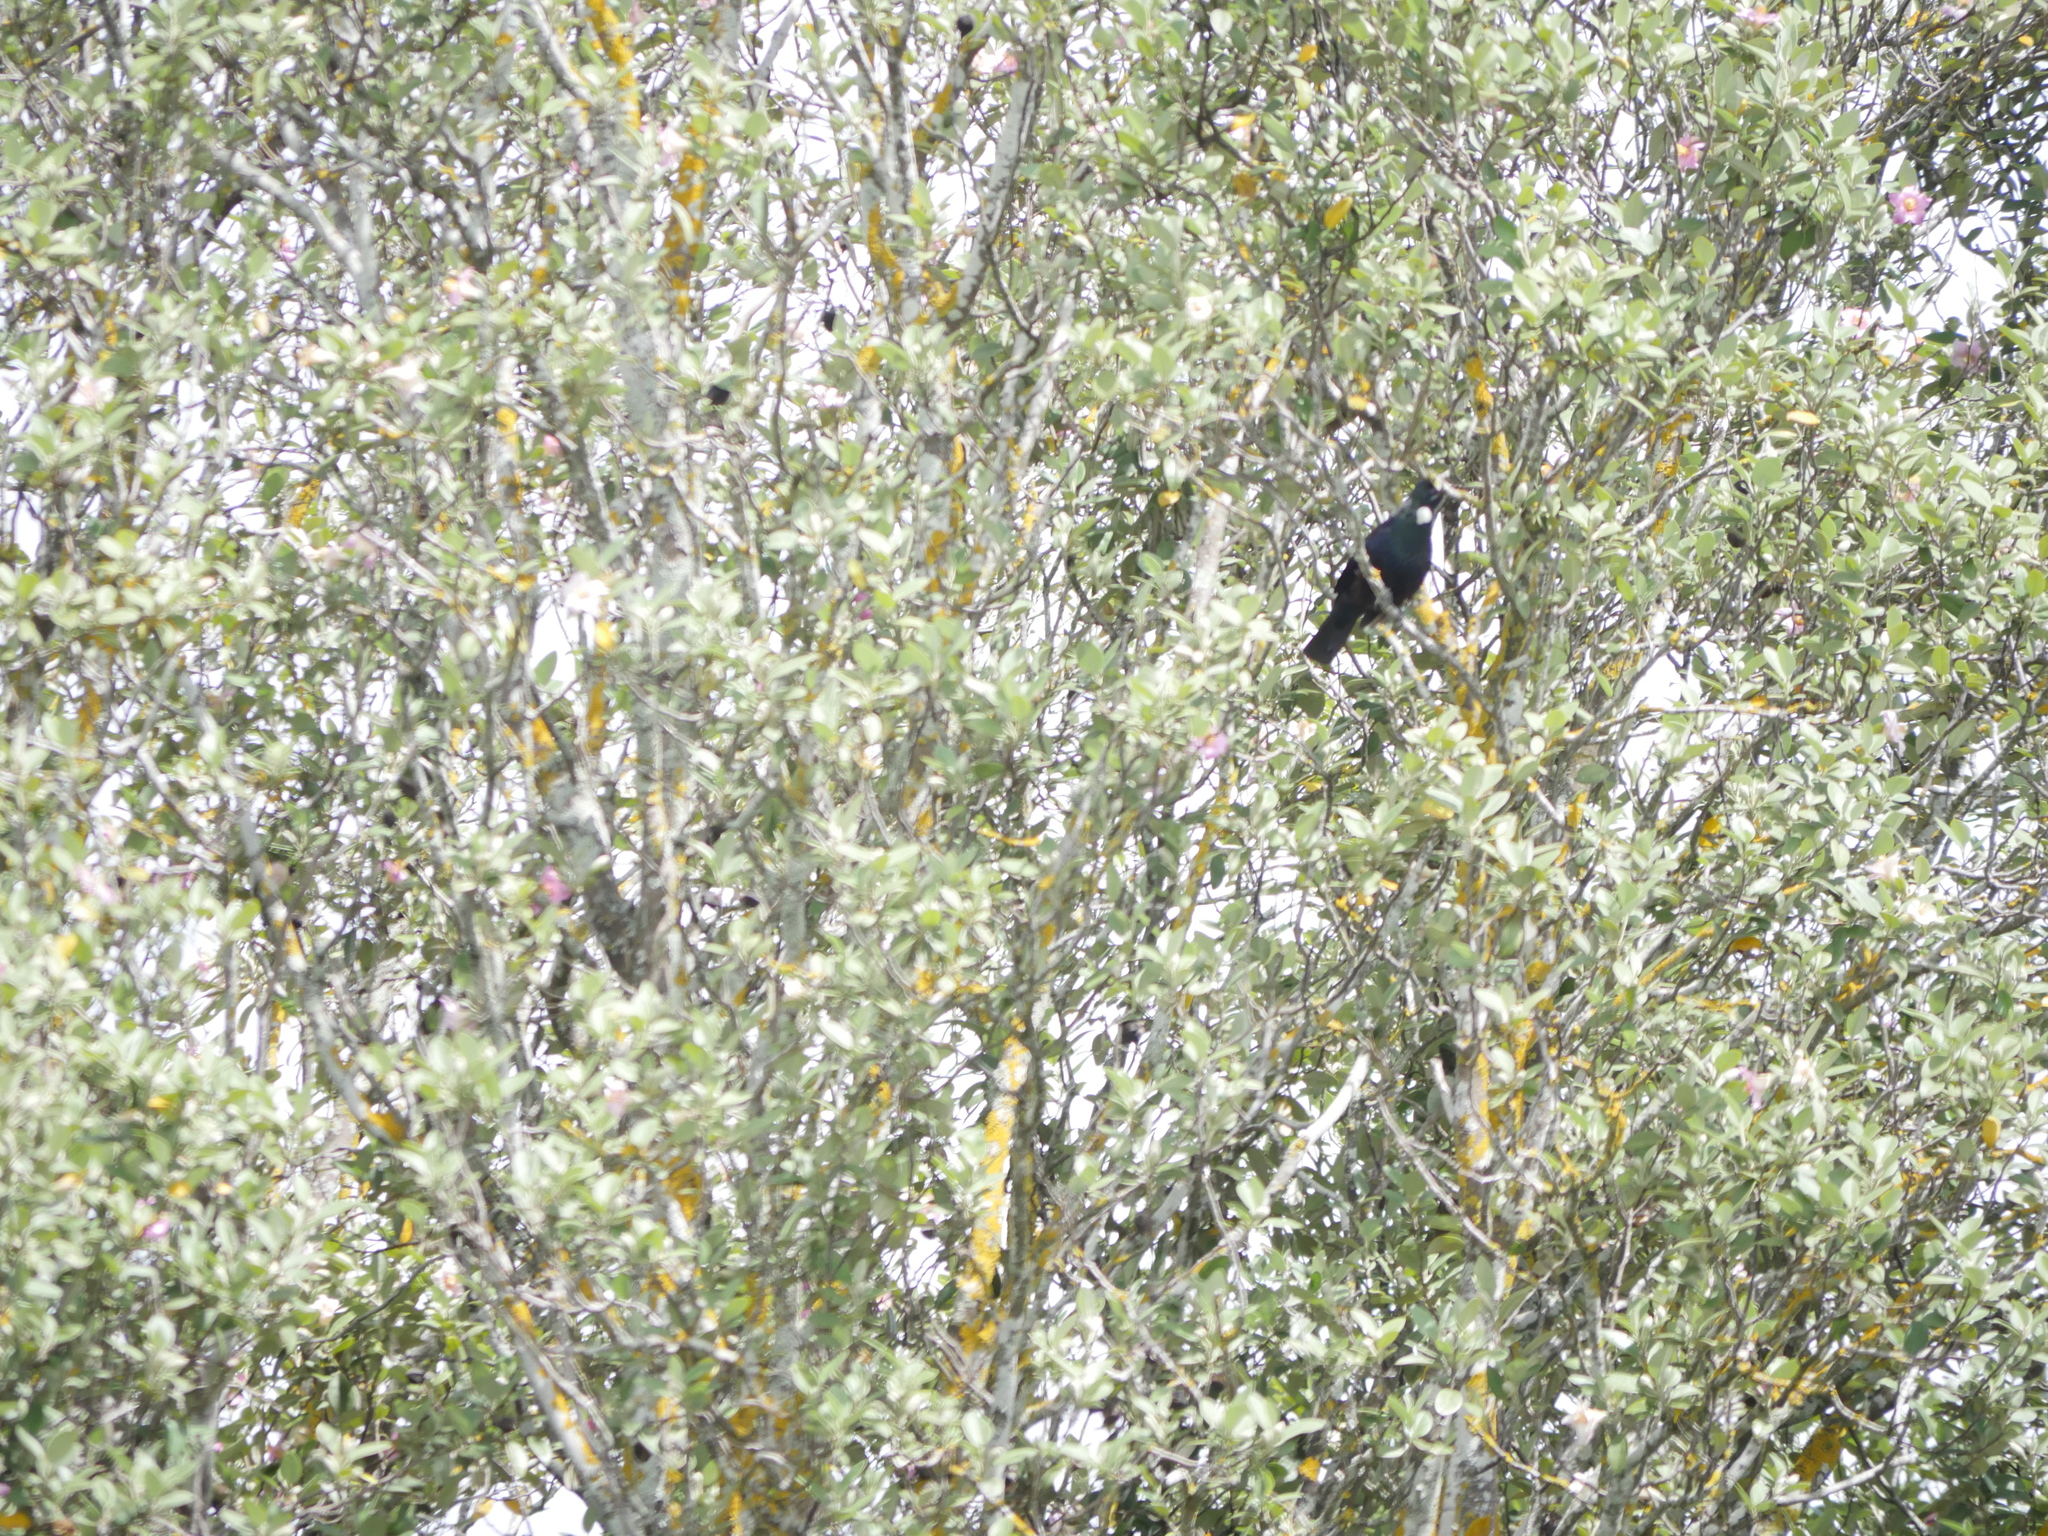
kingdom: Animalia
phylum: Chordata
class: Aves
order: Passeriformes
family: Meliphagidae
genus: Prosthemadera
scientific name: Prosthemadera novaeseelandiae
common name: Tui
